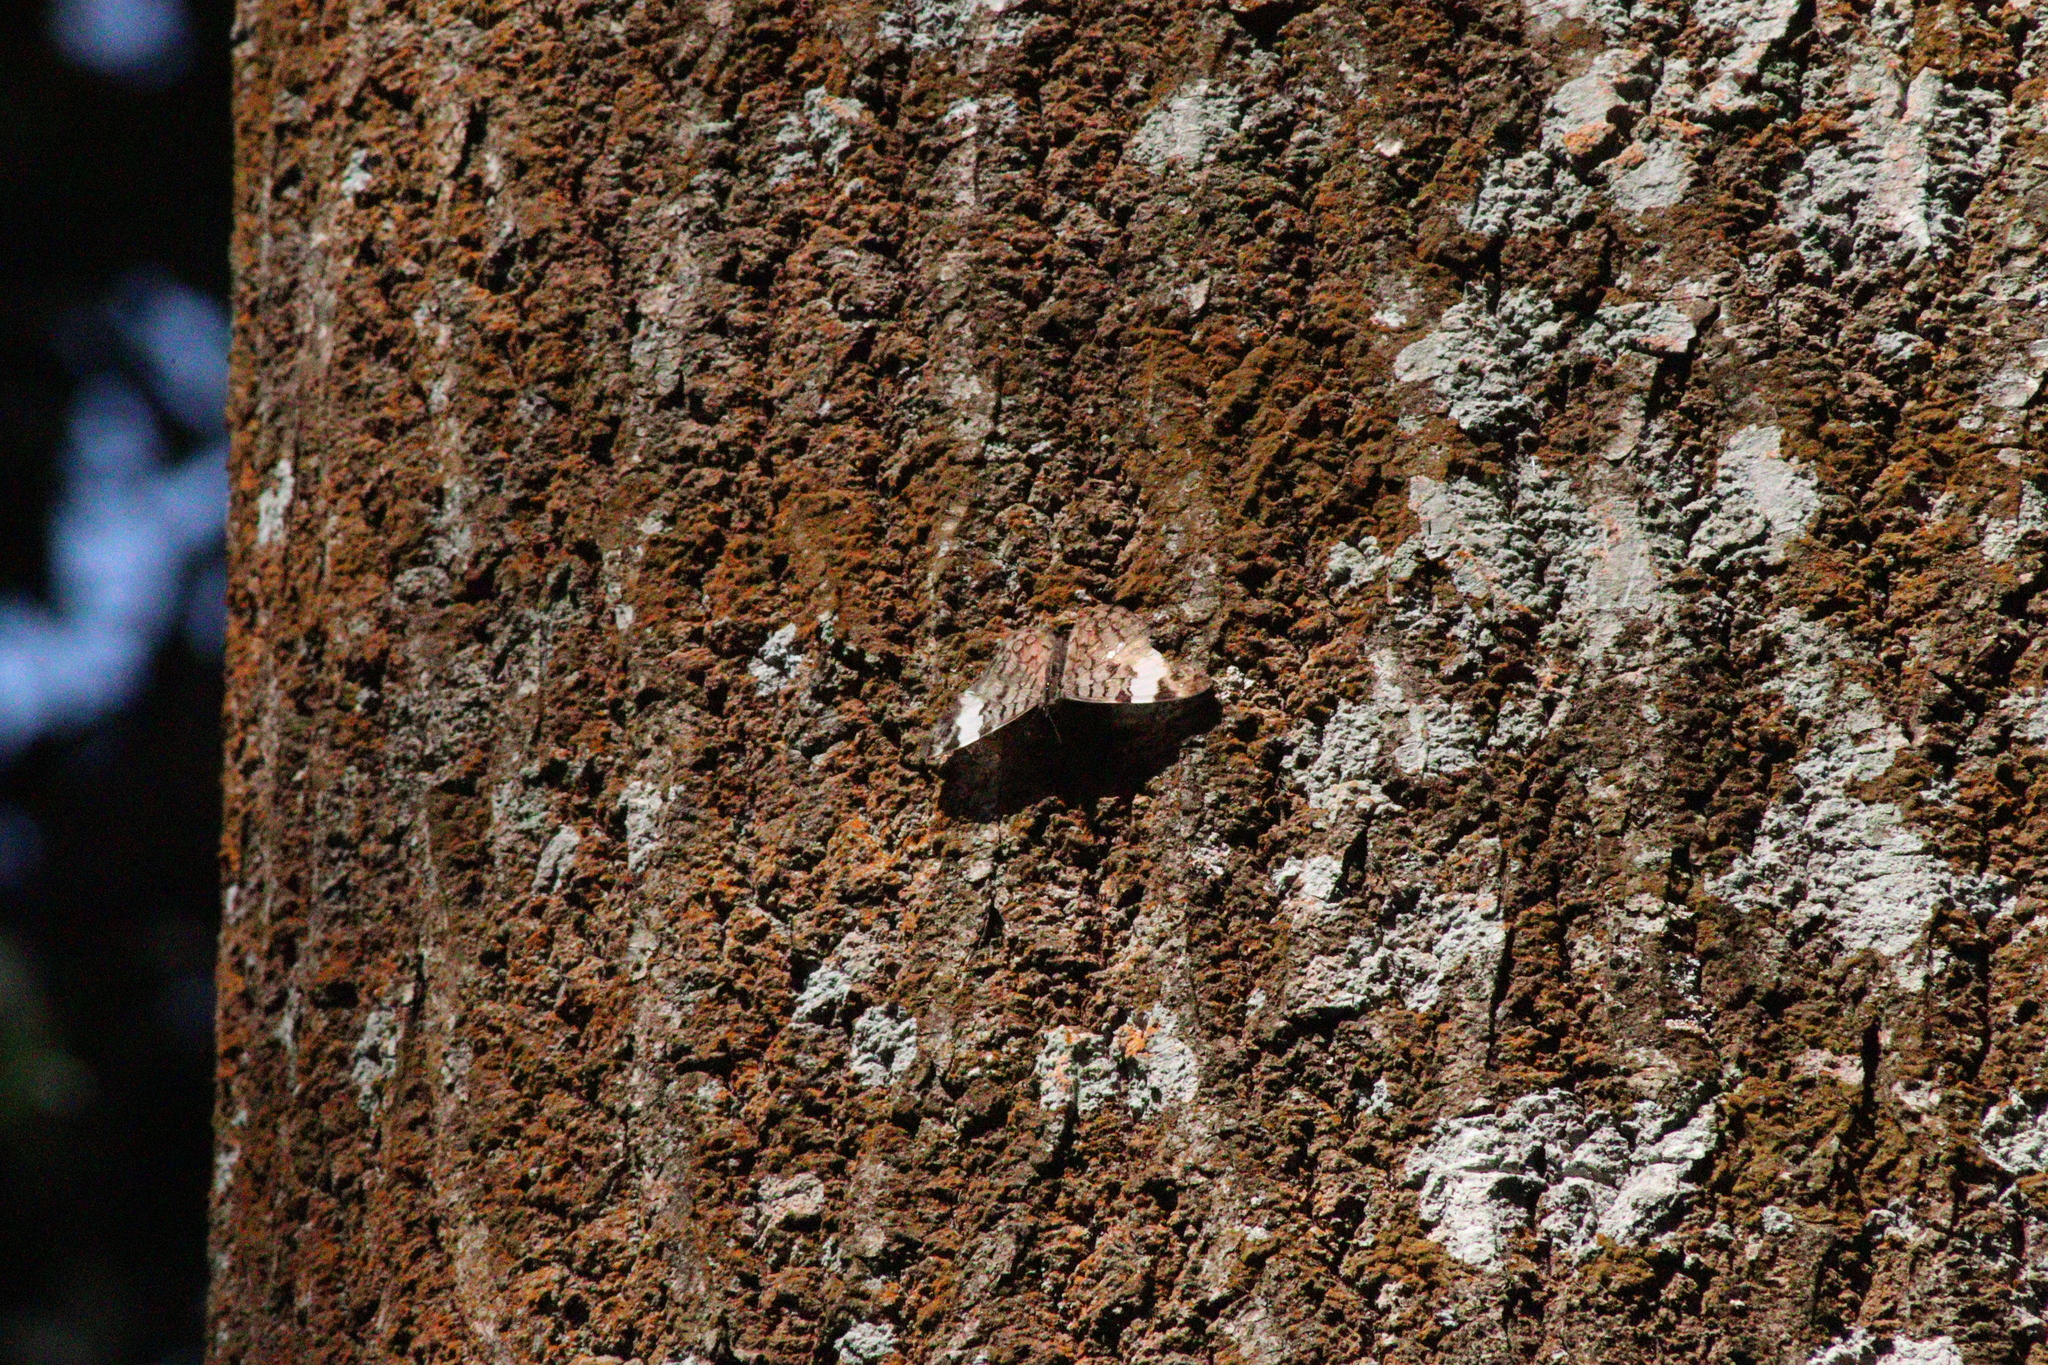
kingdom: Animalia
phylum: Arthropoda
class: Insecta
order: Lepidoptera
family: Nymphalidae
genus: Ectima
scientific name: Ectima thecla
